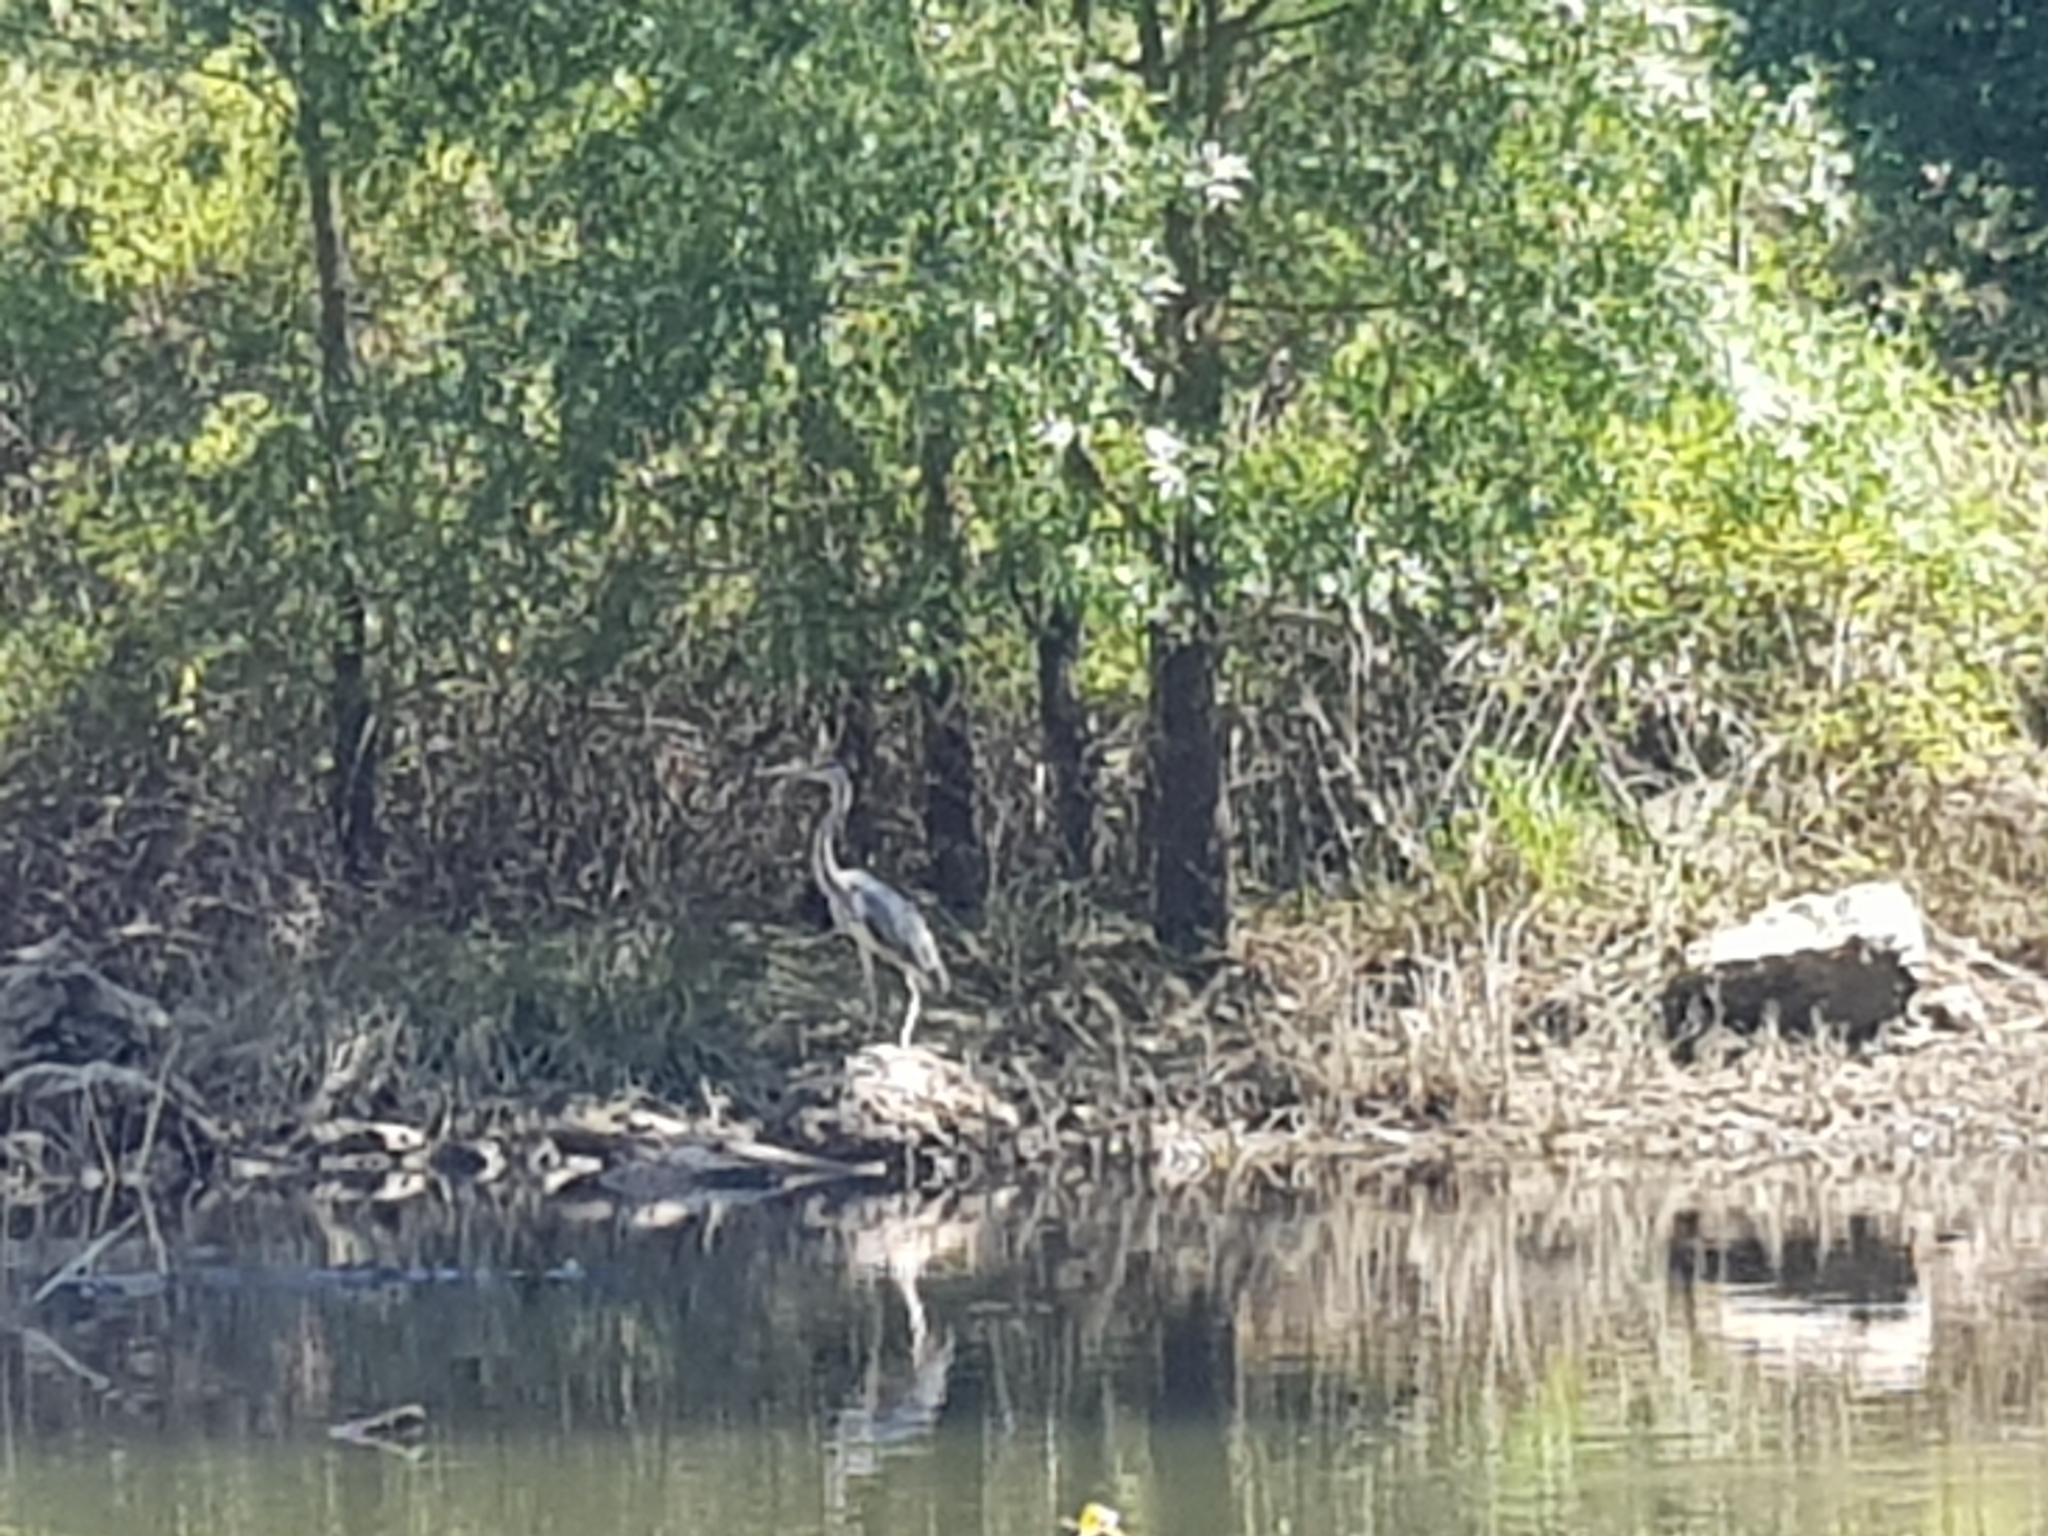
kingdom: Animalia
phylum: Chordata
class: Aves
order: Pelecaniformes
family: Ardeidae
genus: Ardea
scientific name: Ardea cinerea
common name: Grey heron
